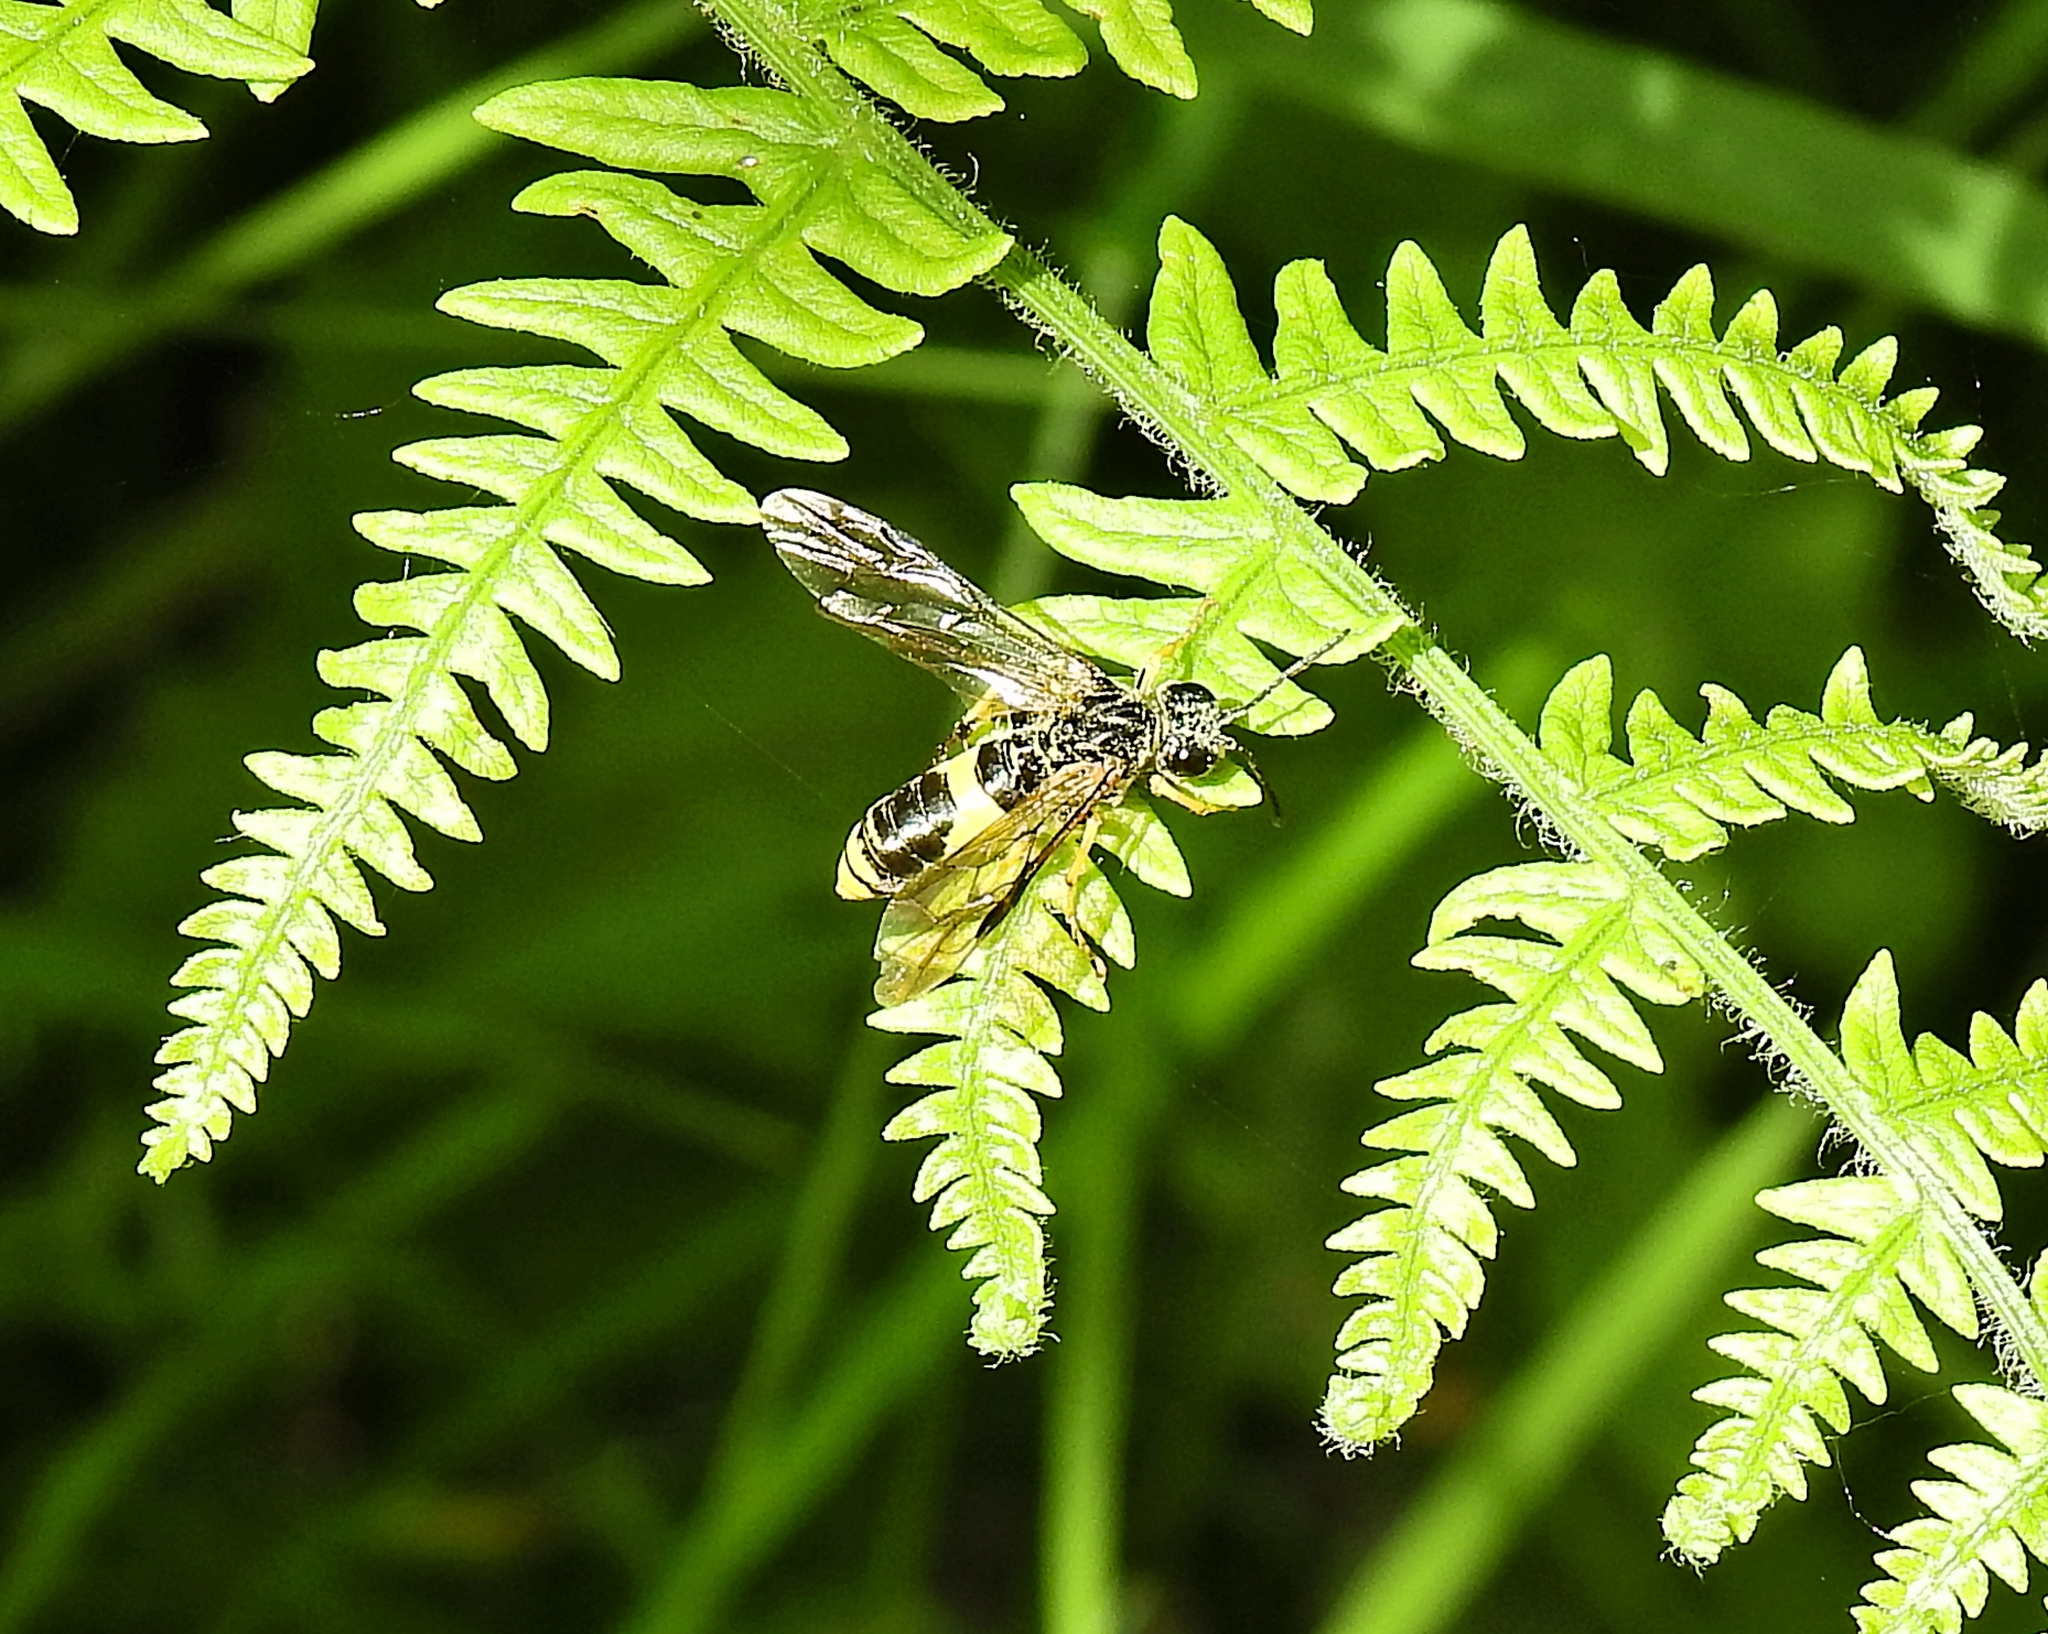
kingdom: Animalia
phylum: Arthropoda
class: Insecta
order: Hymenoptera
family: Tenthredinidae
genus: Tenthredo
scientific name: Tenthredo temula
